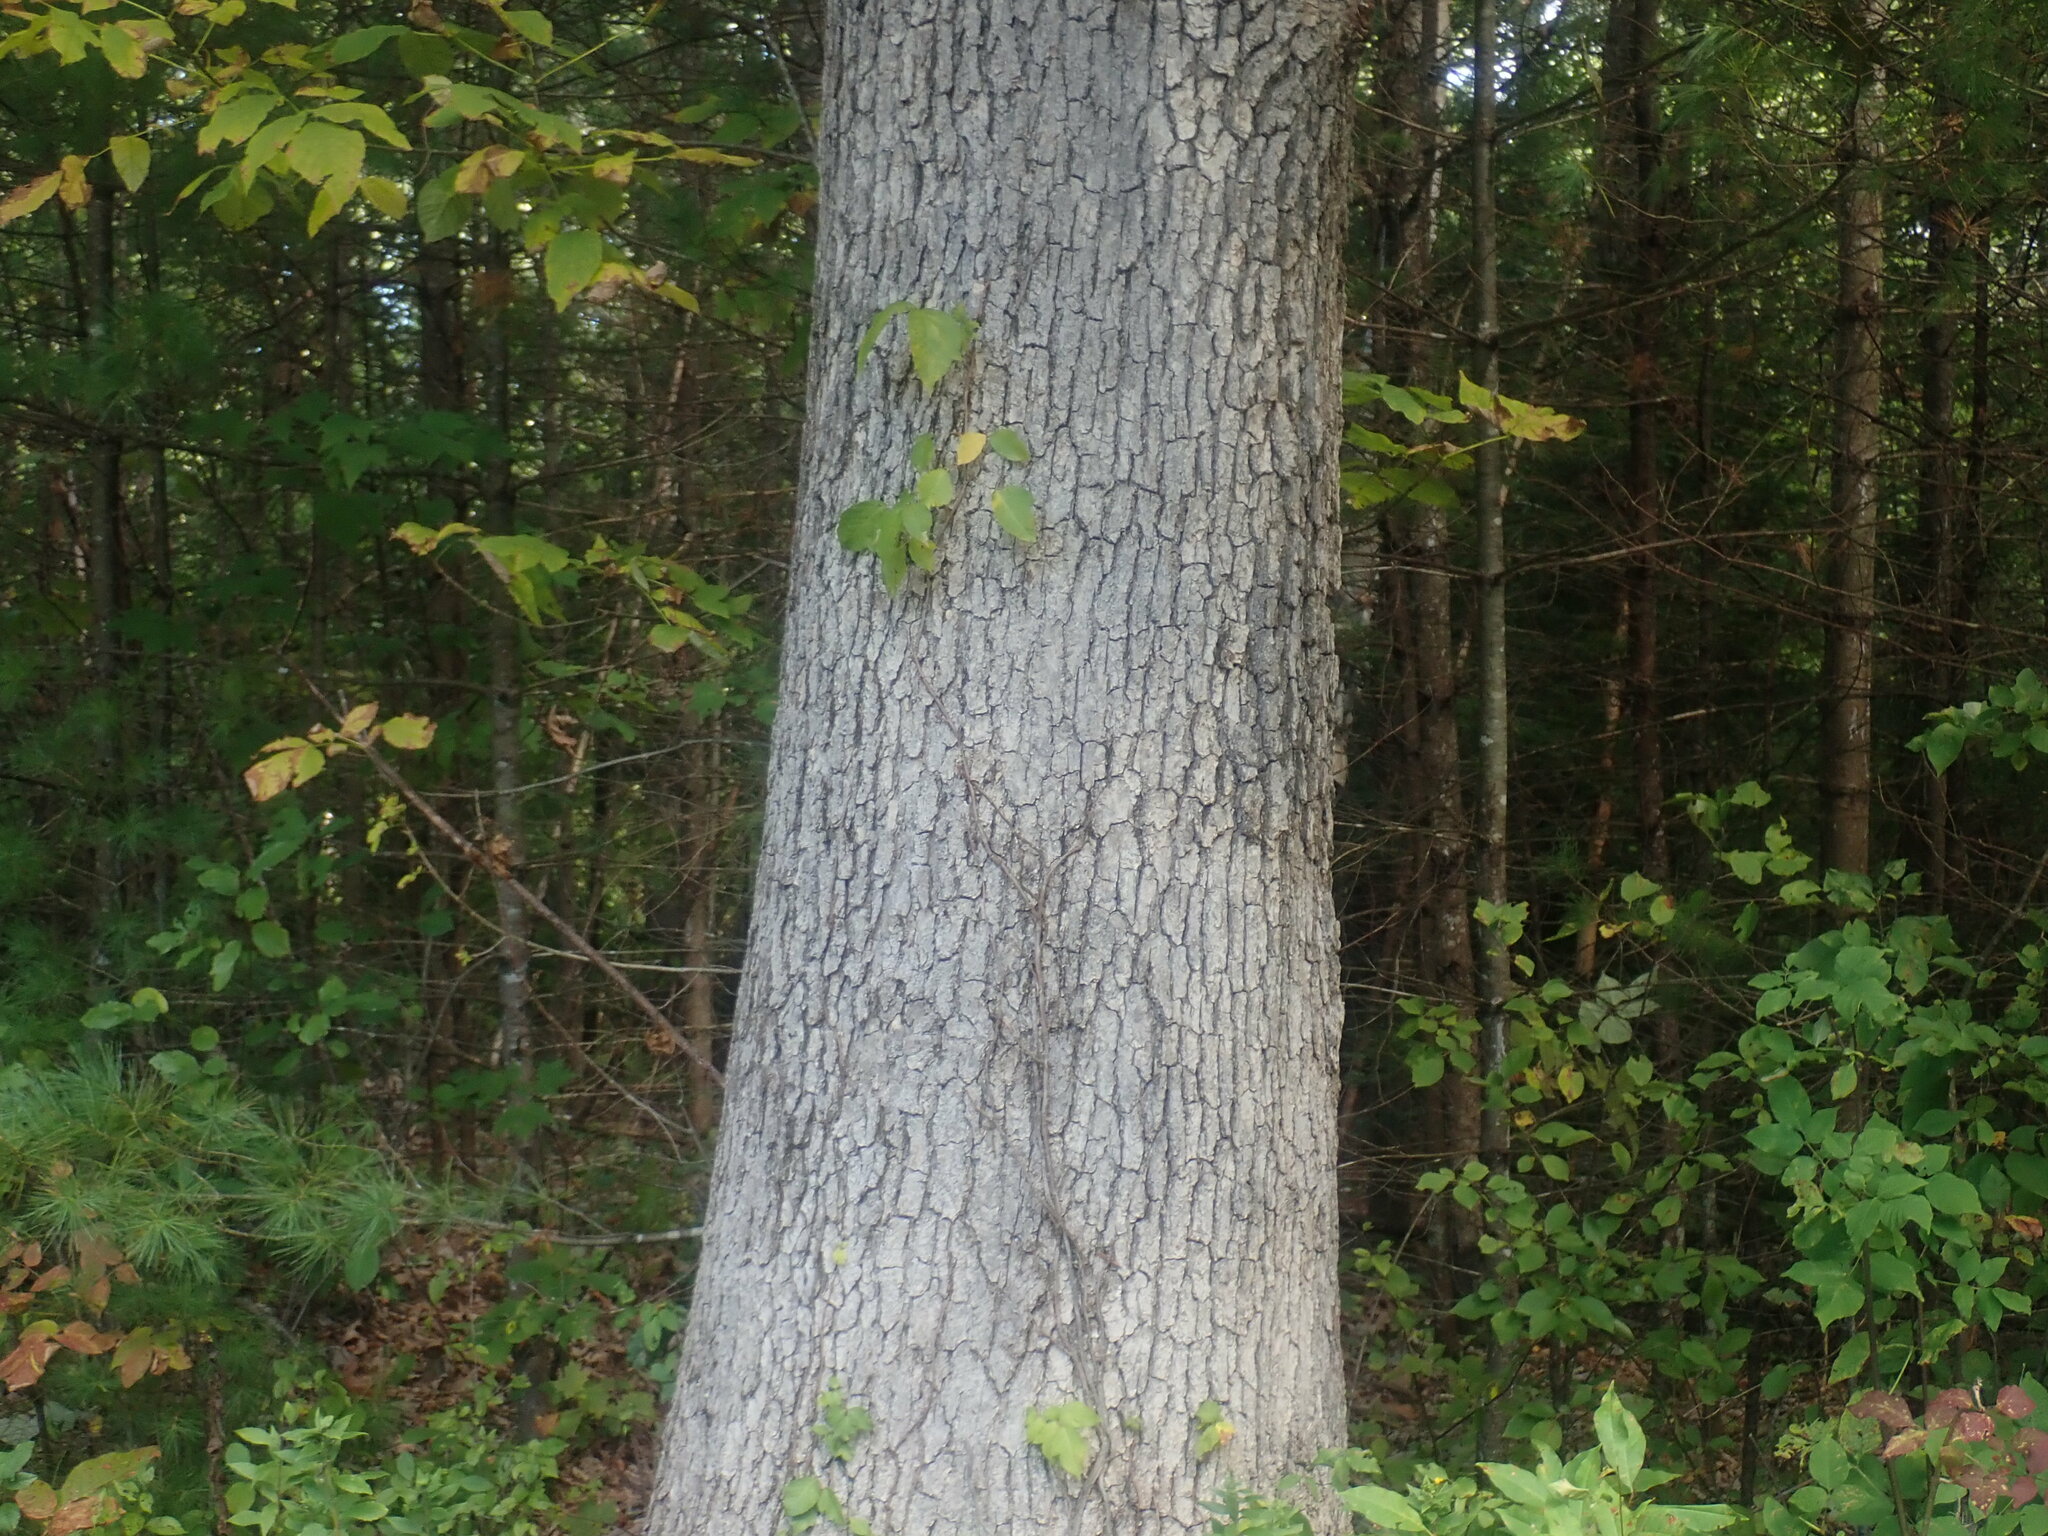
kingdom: Plantae
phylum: Tracheophyta
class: Magnoliopsida
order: Fagales
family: Fagaceae
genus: Quercus
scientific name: Quercus alba
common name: White oak
